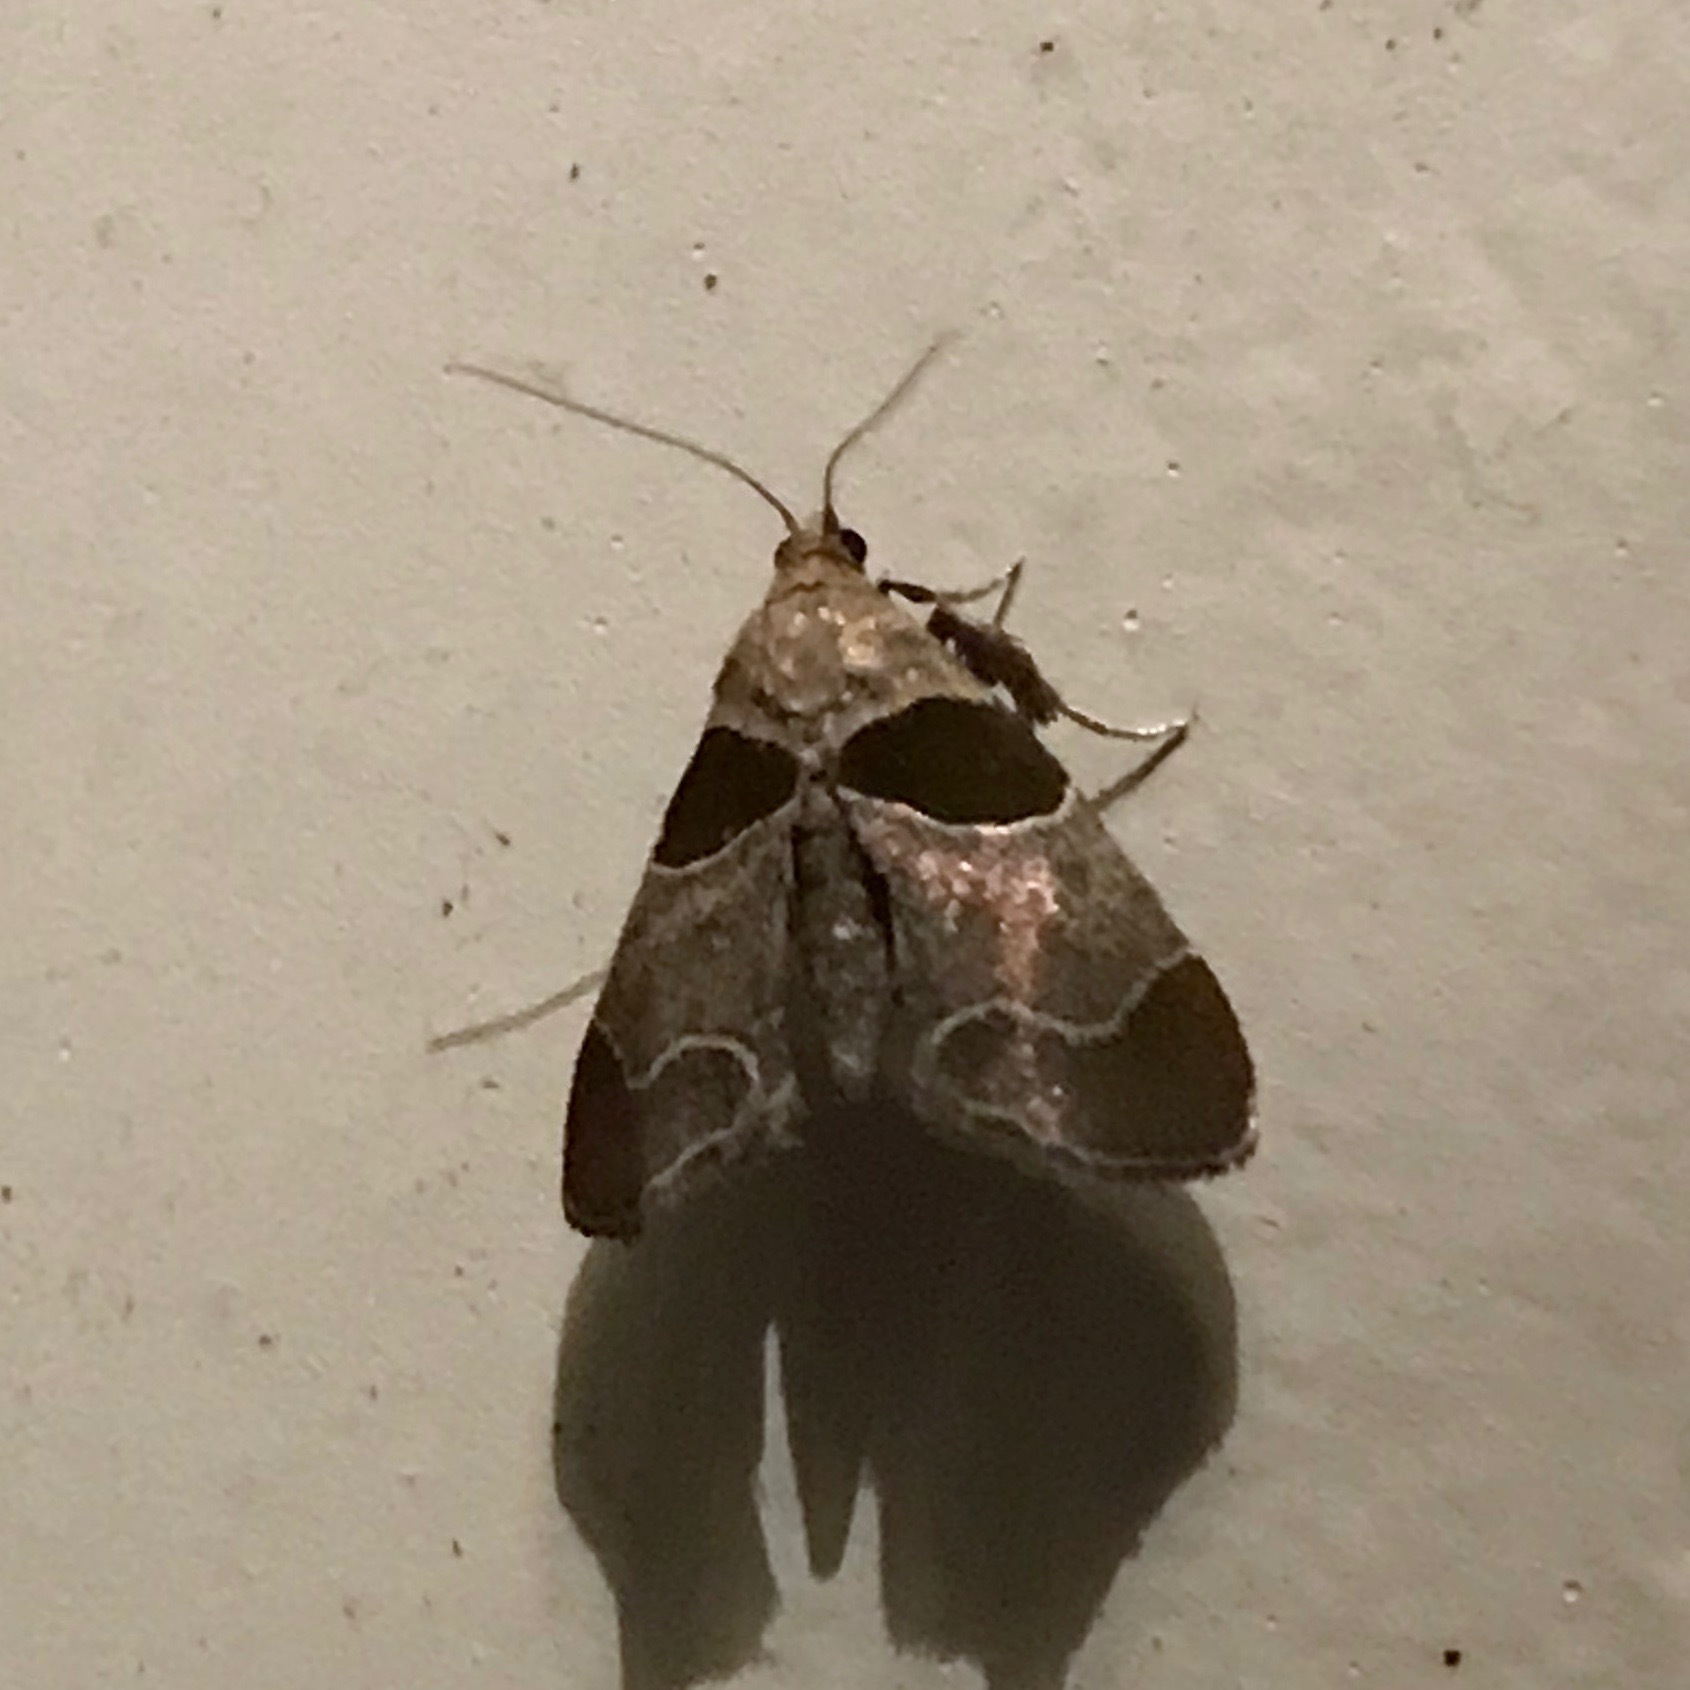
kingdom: Animalia
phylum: Arthropoda
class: Insecta
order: Lepidoptera
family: Pyralidae
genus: Tosale
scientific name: Tosale oviplagalis
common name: Dimorphic tosale moth
